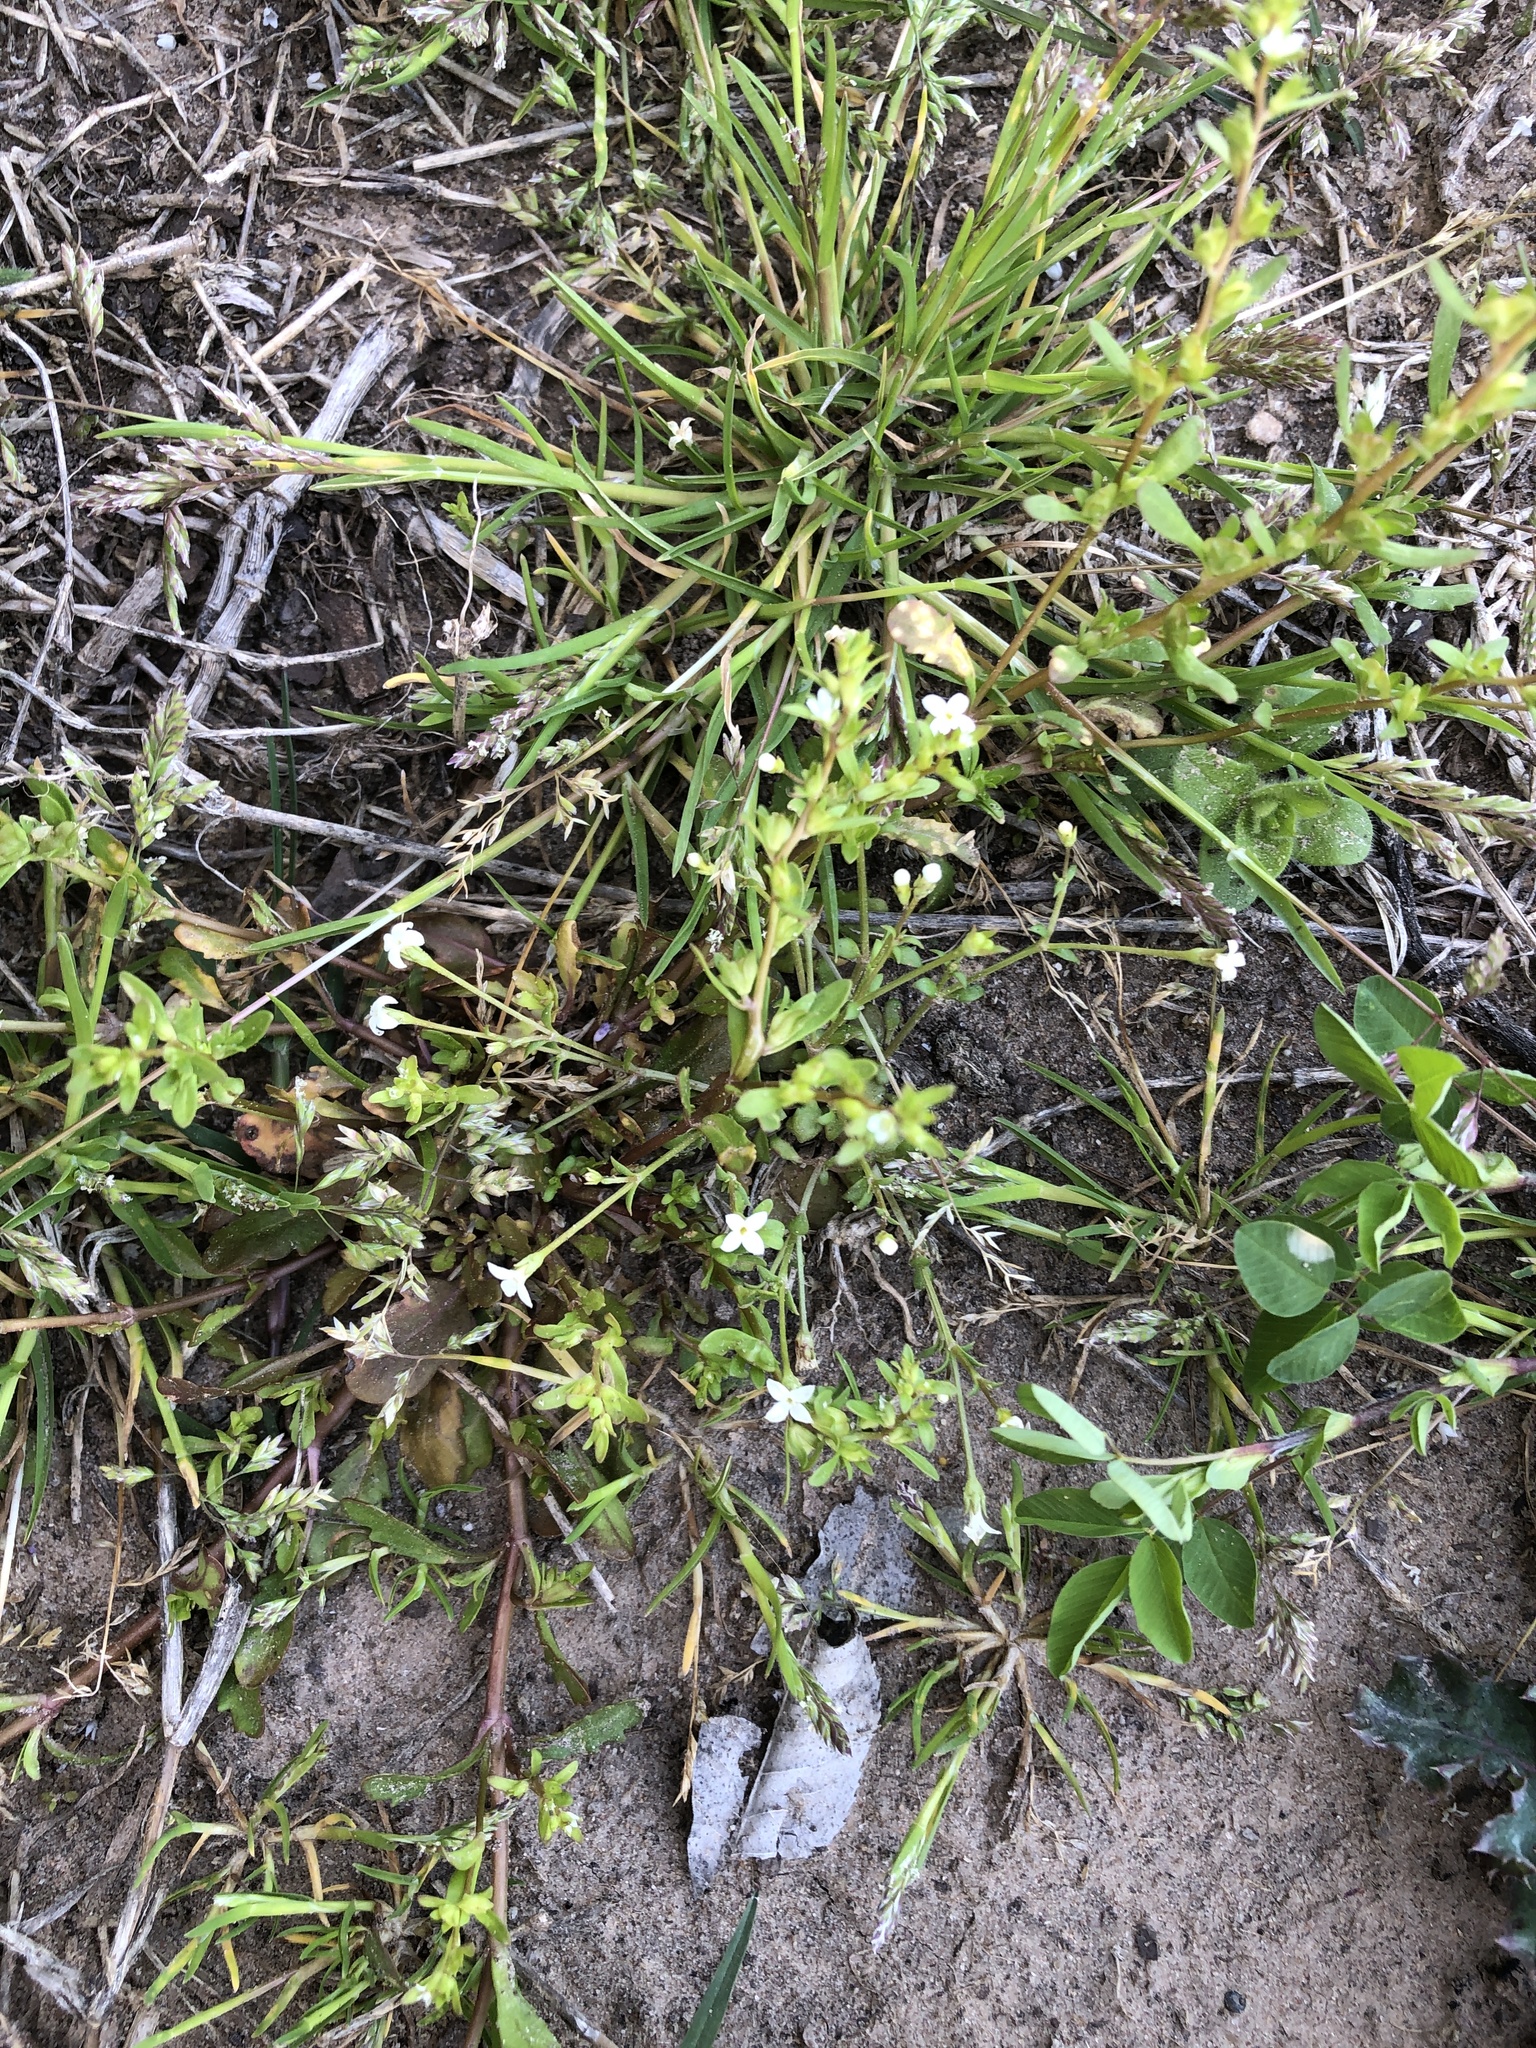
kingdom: Plantae
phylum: Tracheophyta
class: Magnoliopsida
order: Gentianales
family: Rubiaceae
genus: Houstonia
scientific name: Houstonia micrantha
